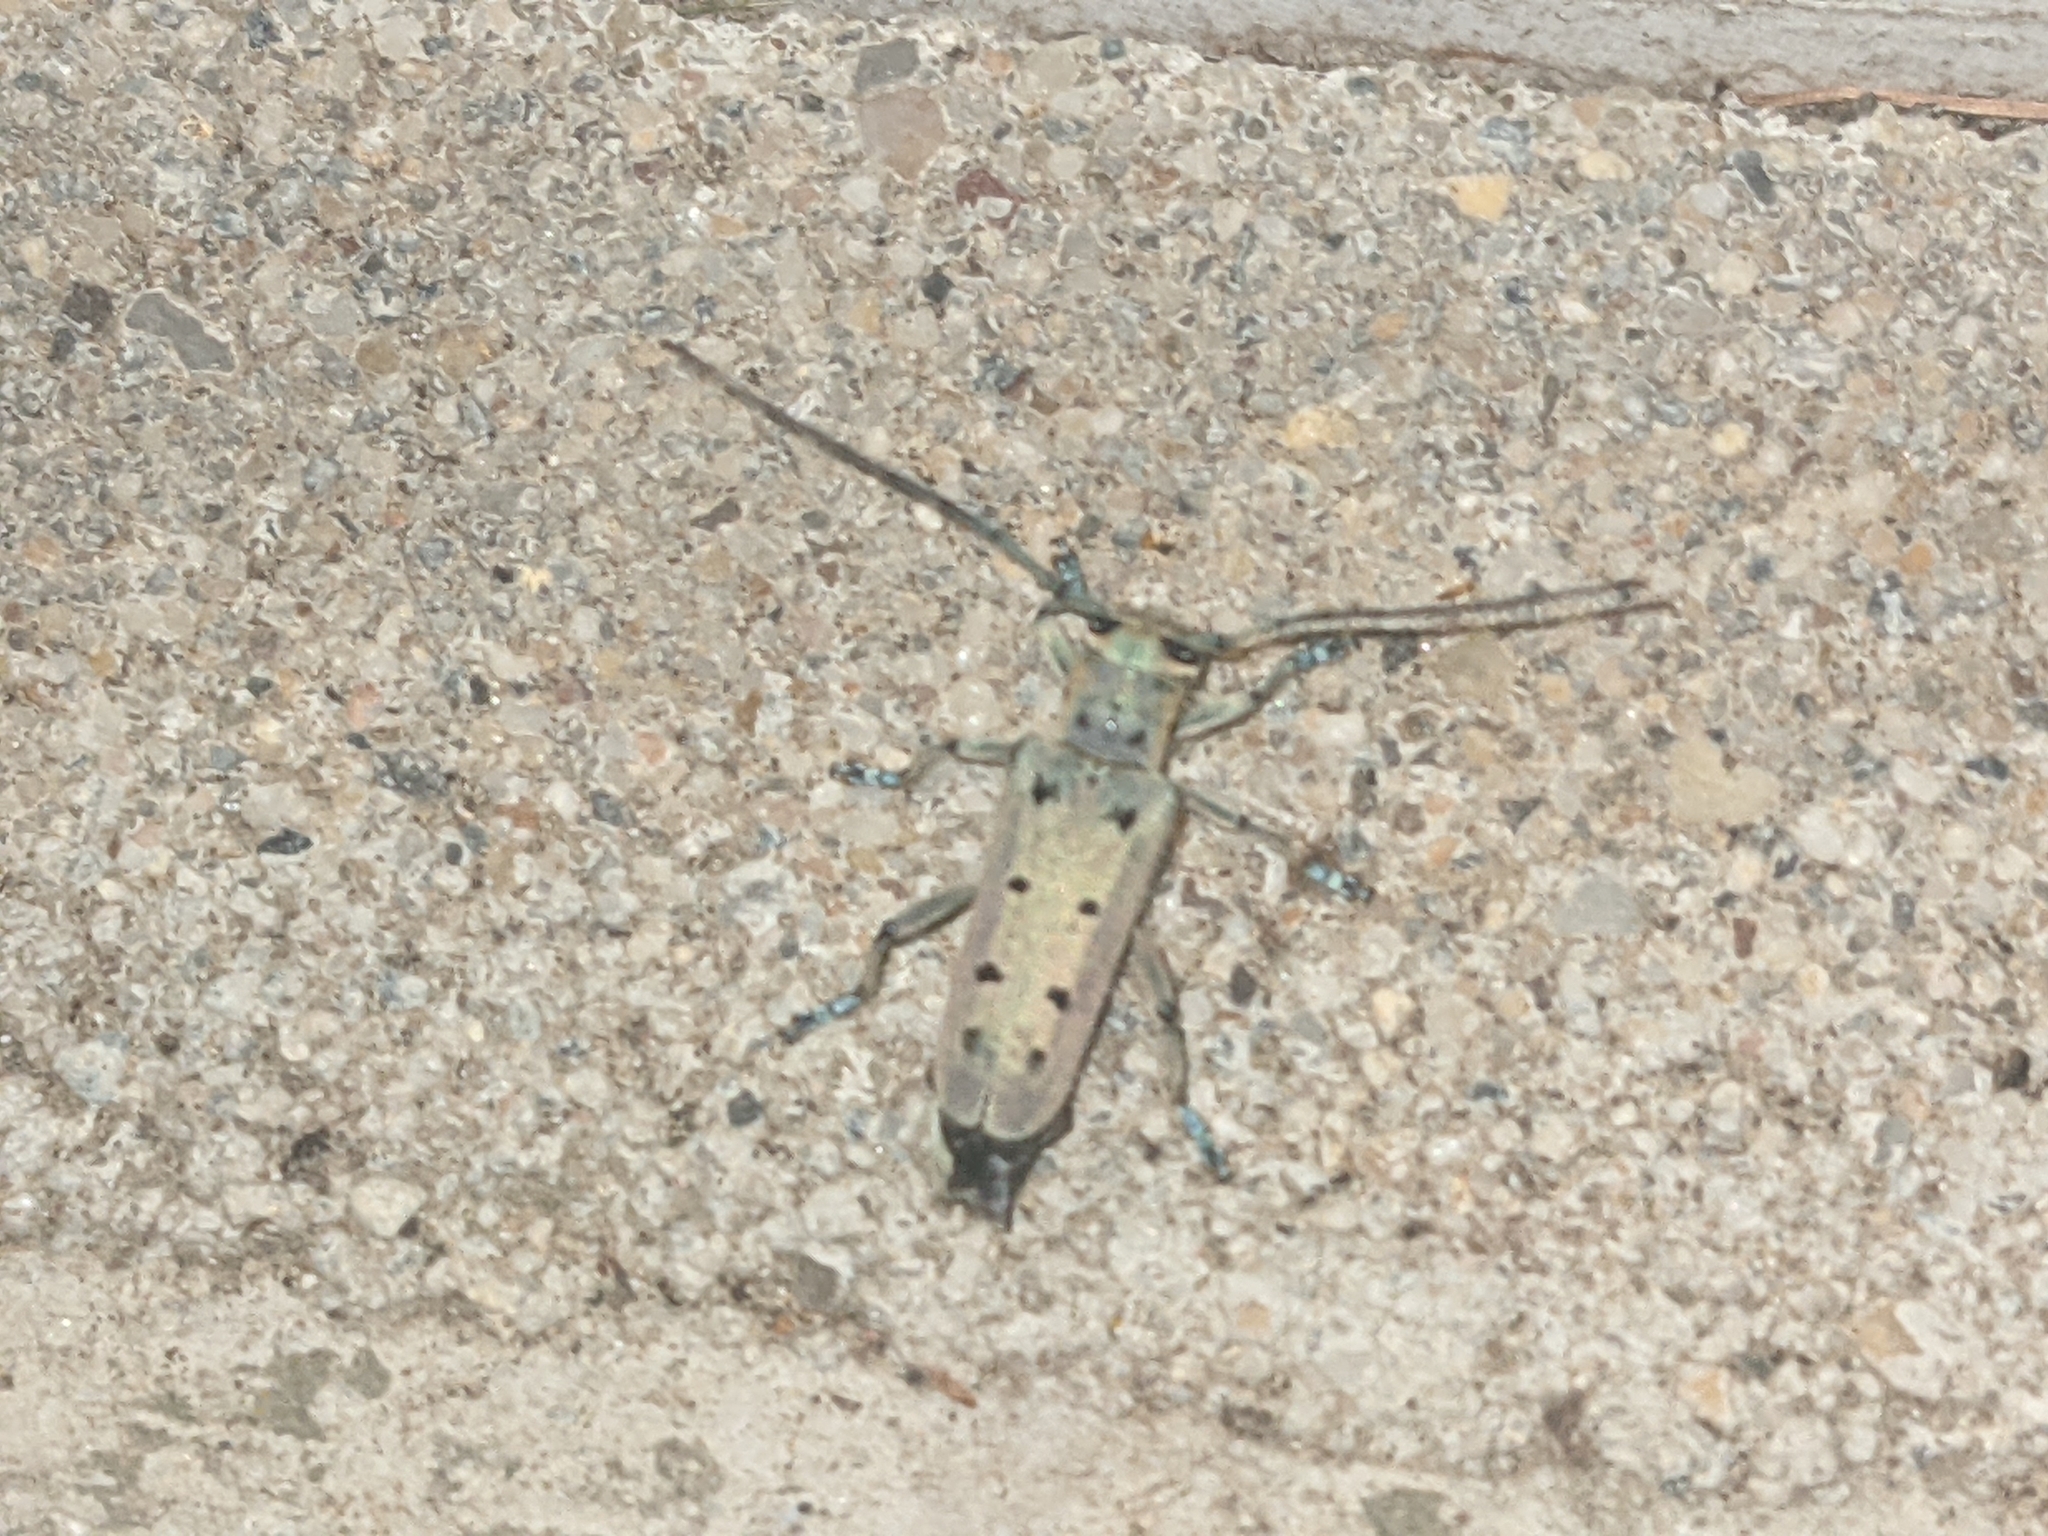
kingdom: Animalia
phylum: Arthropoda
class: Insecta
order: Coleoptera
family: Cerambycidae
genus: Saperda
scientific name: Saperda octopunctata
